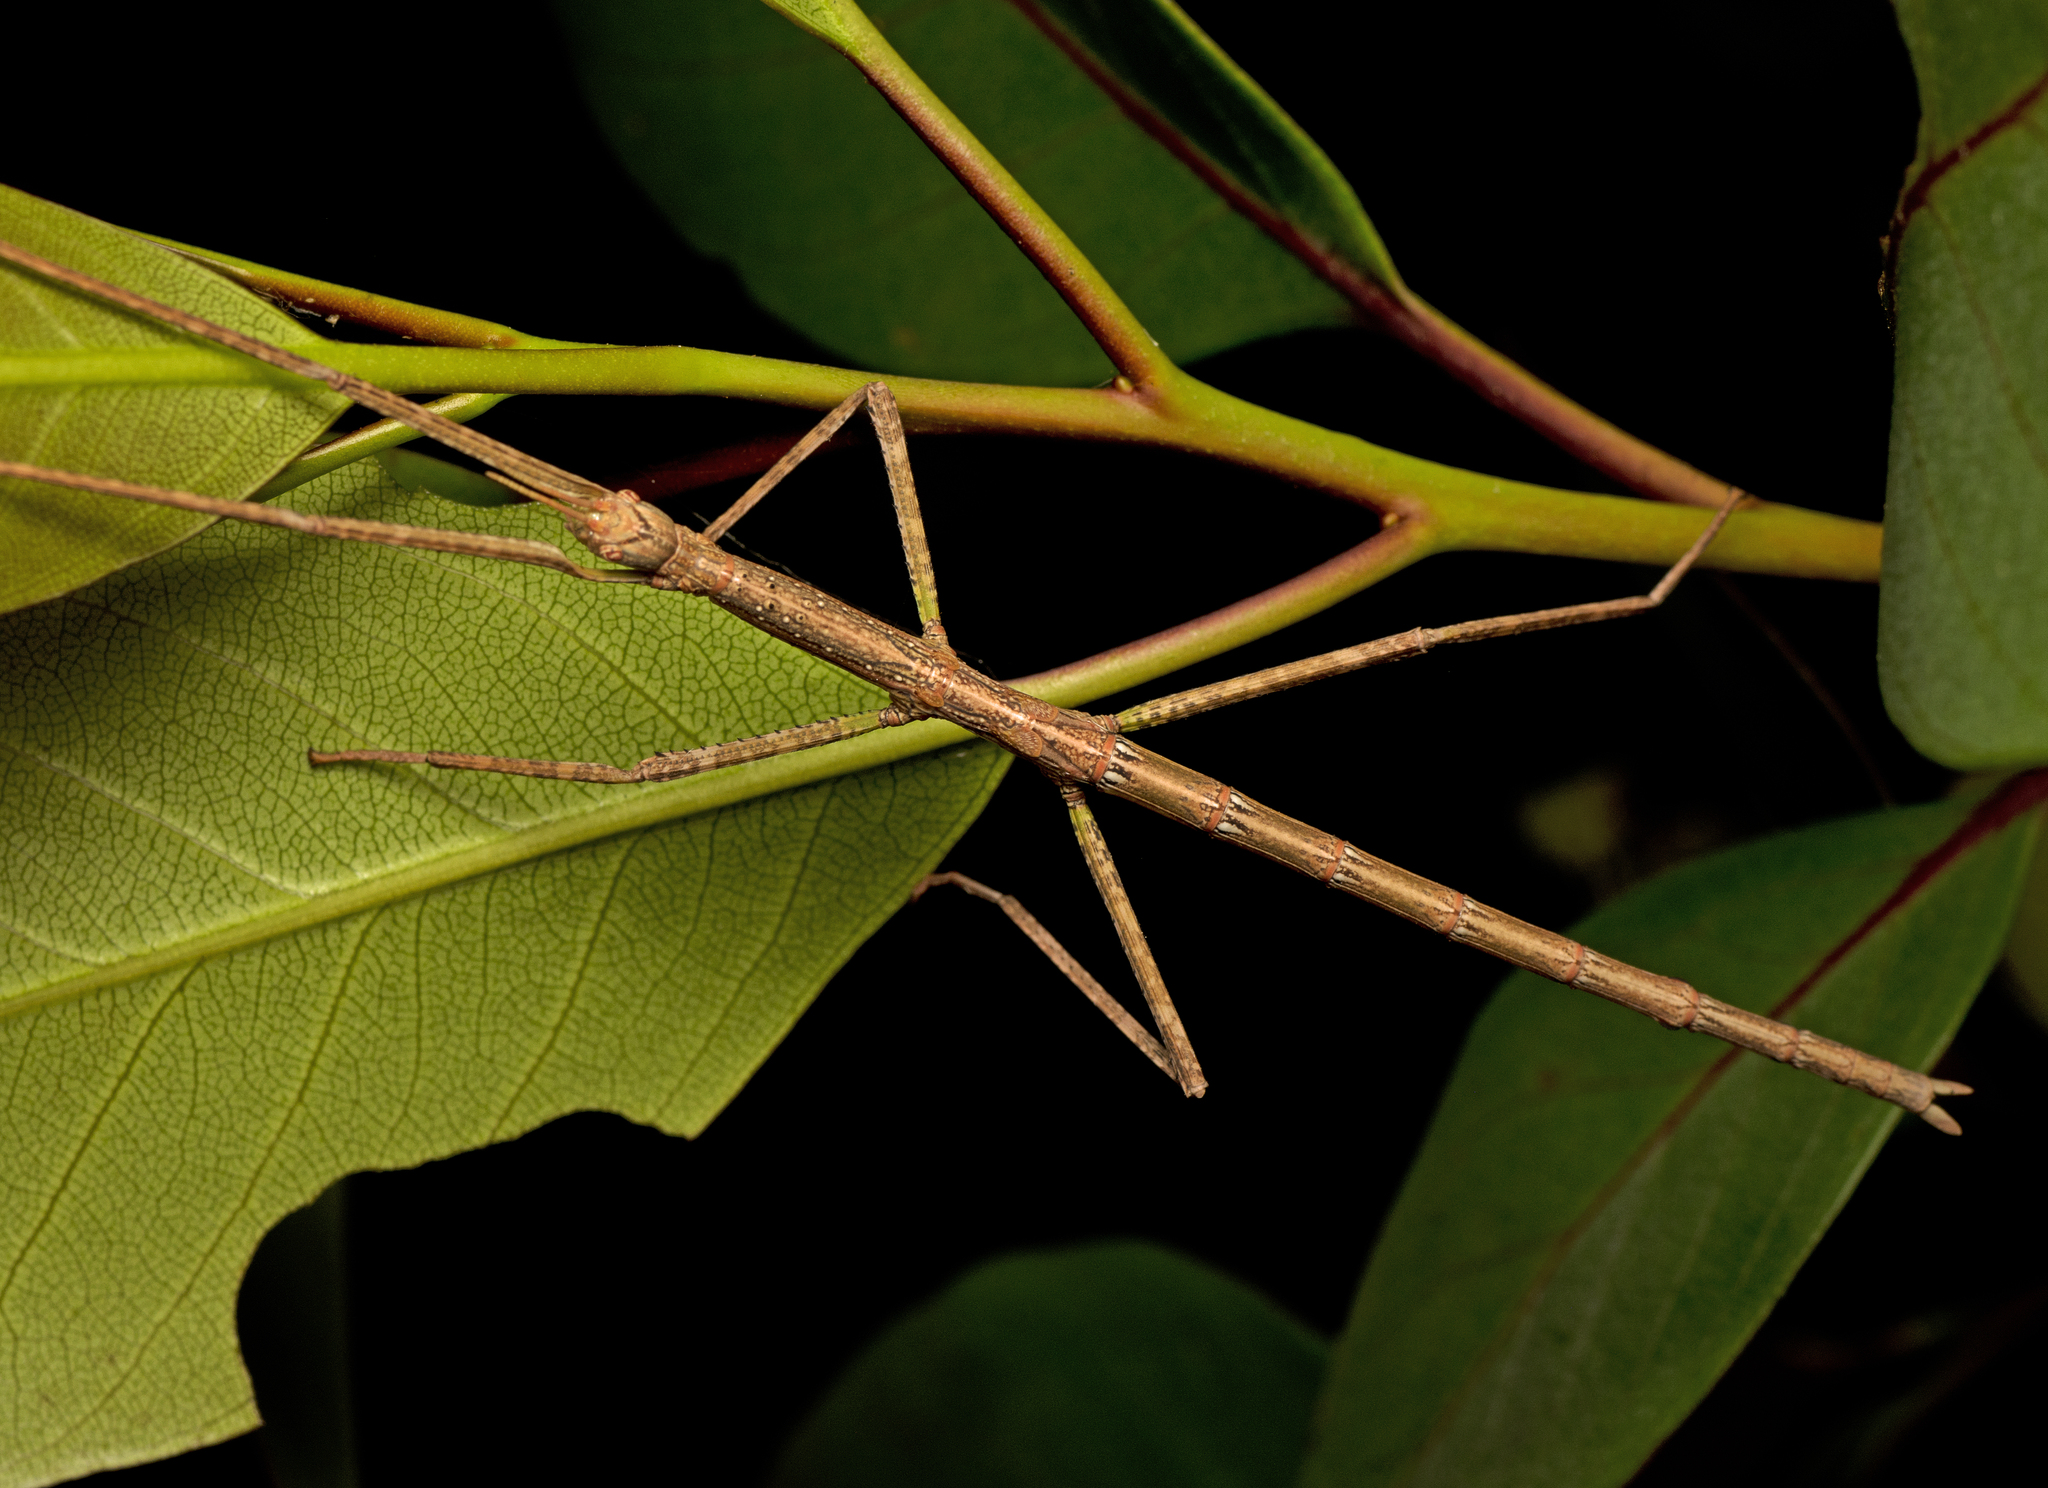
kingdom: Animalia
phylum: Arthropoda
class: Insecta
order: Phasmida
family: Phasmatidae
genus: Anchiale
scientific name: Anchiale austrotessulata
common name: Tessellated stick-insect
